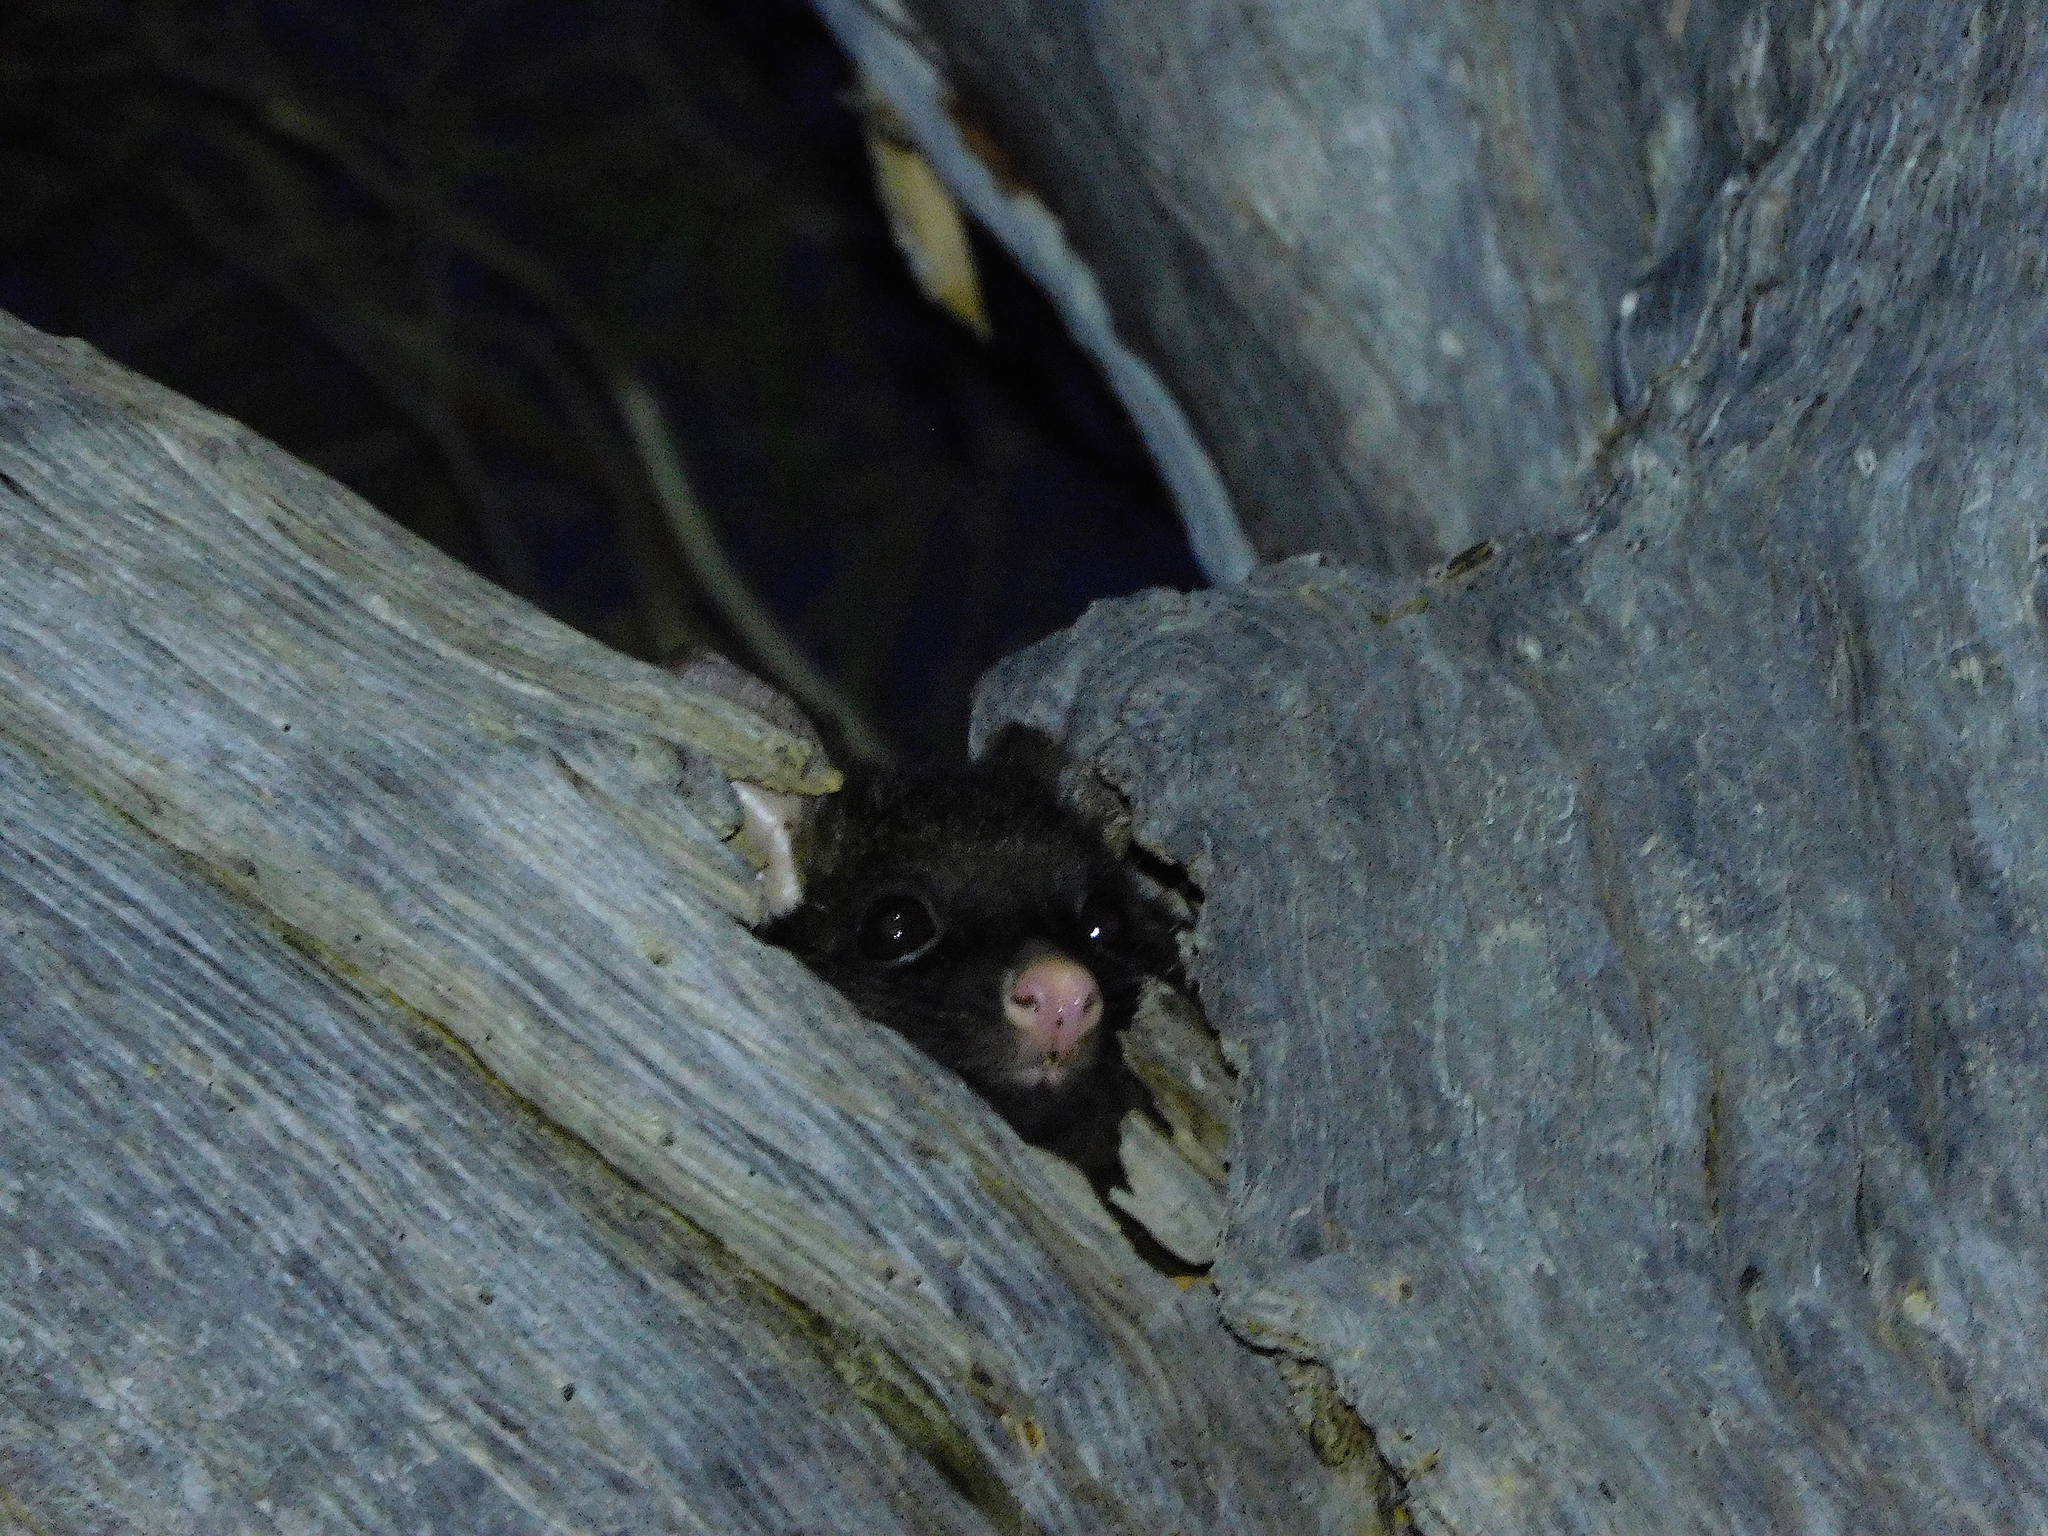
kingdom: Animalia
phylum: Chordata
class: Mammalia
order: Diprotodontia
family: Phalangeridae
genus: Trichosurus
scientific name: Trichosurus vulpecula
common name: Common brushtail
